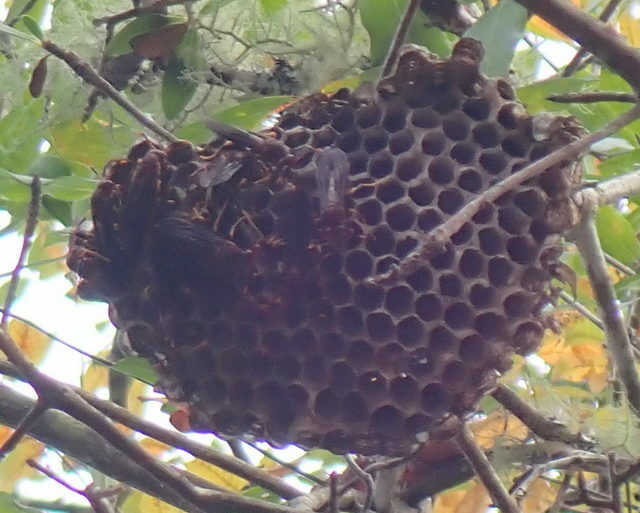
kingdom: Animalia
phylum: Arthropoda
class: Insecta
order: Hymenoptera
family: Eumenidae
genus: Polistes
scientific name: Polistes annularis
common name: Ringed paper wasp
